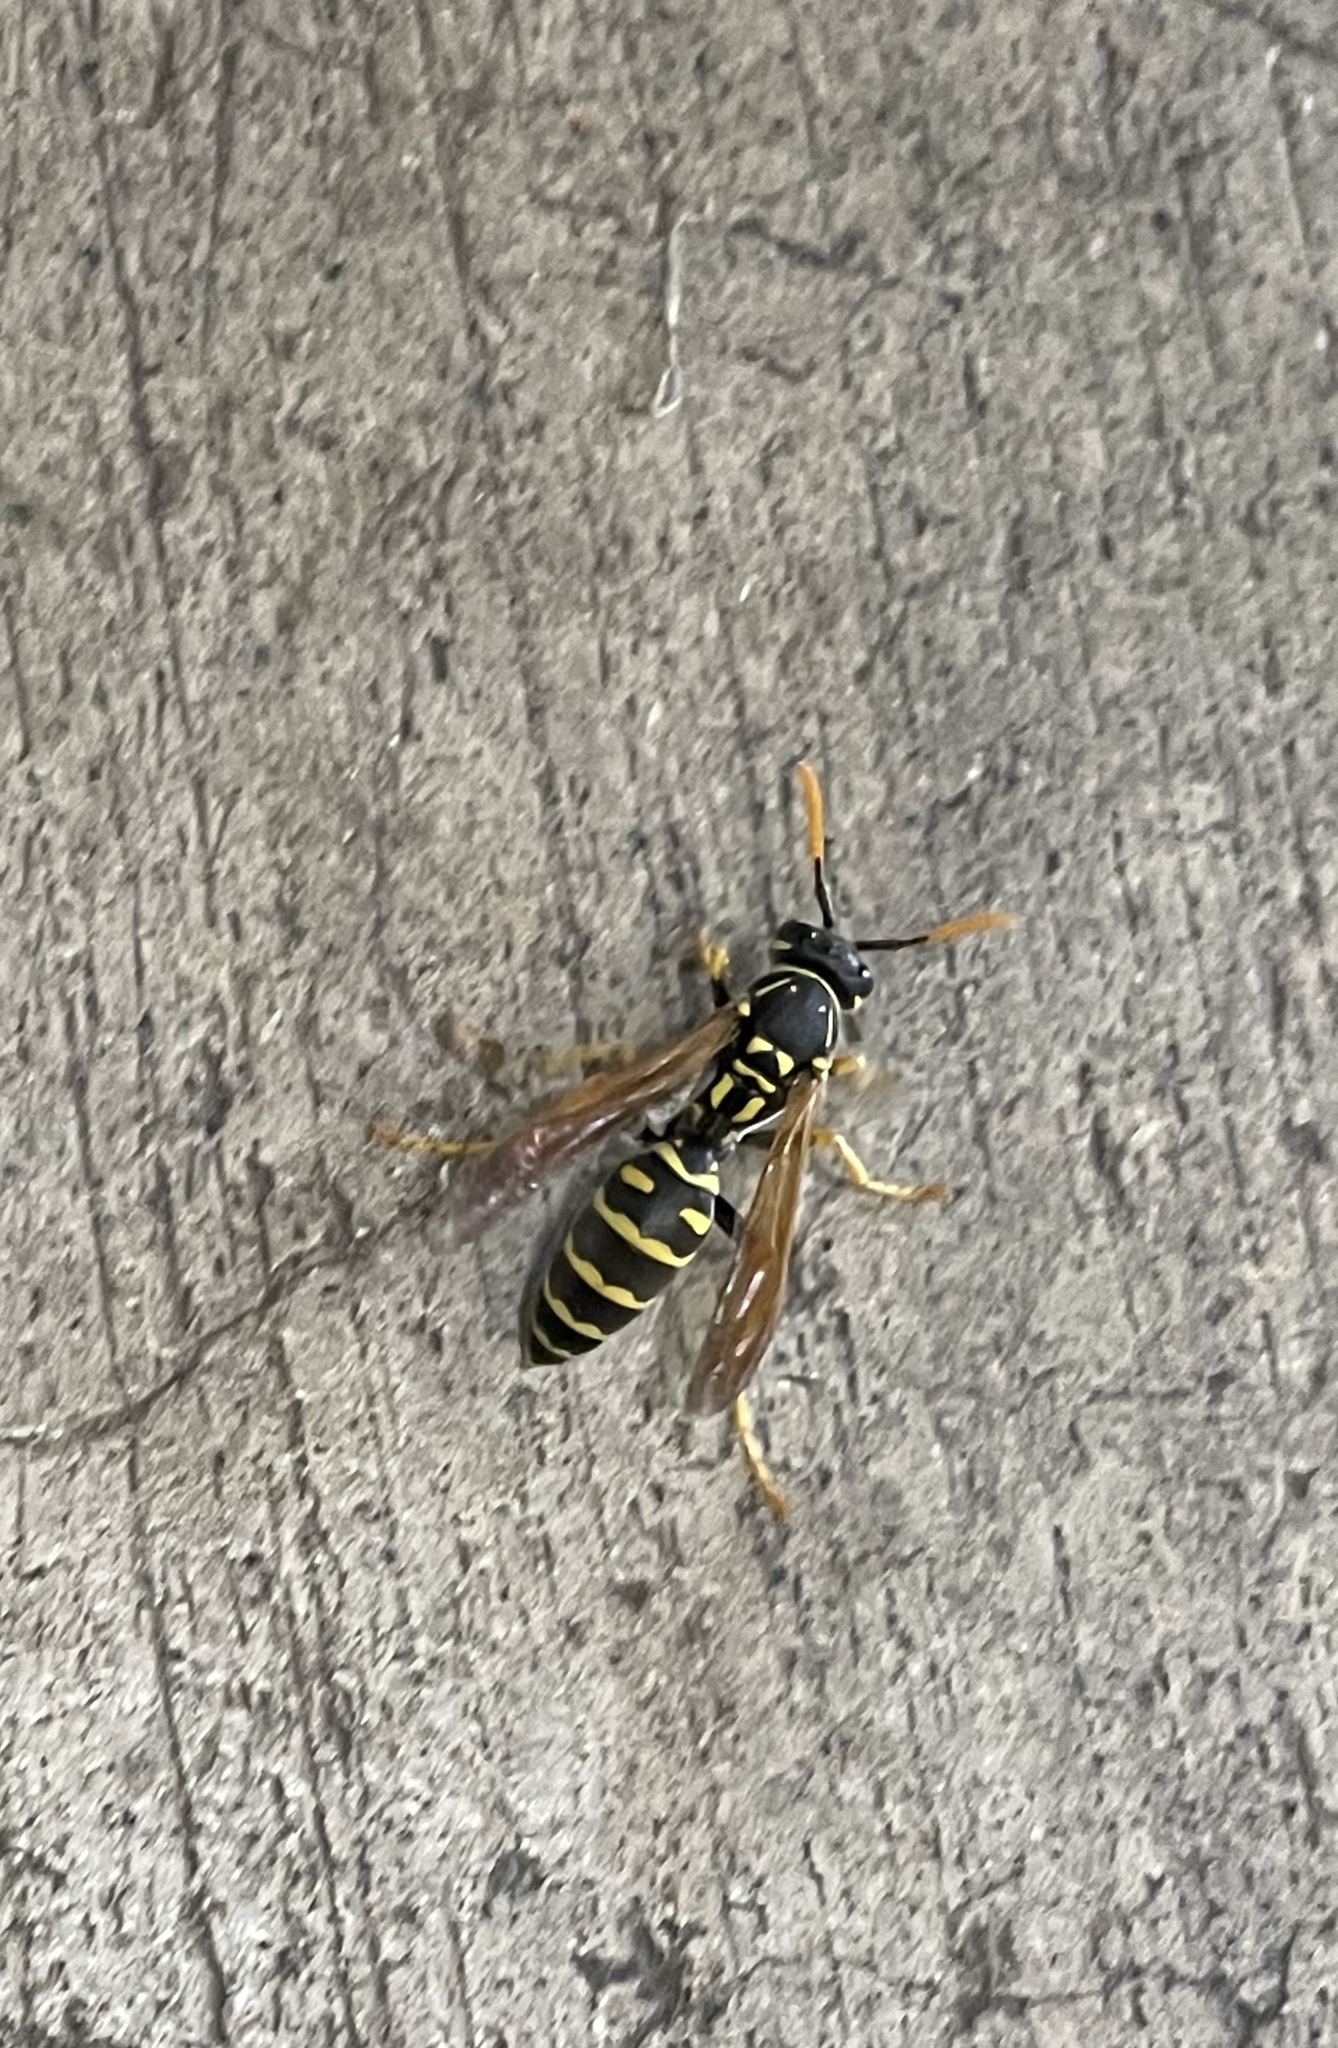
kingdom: Animalia
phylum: Arthropoda
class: Insecta
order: Hymenoptera
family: Eumenidae
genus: Polistes
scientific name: Polistes dominula
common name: Paper wasp
